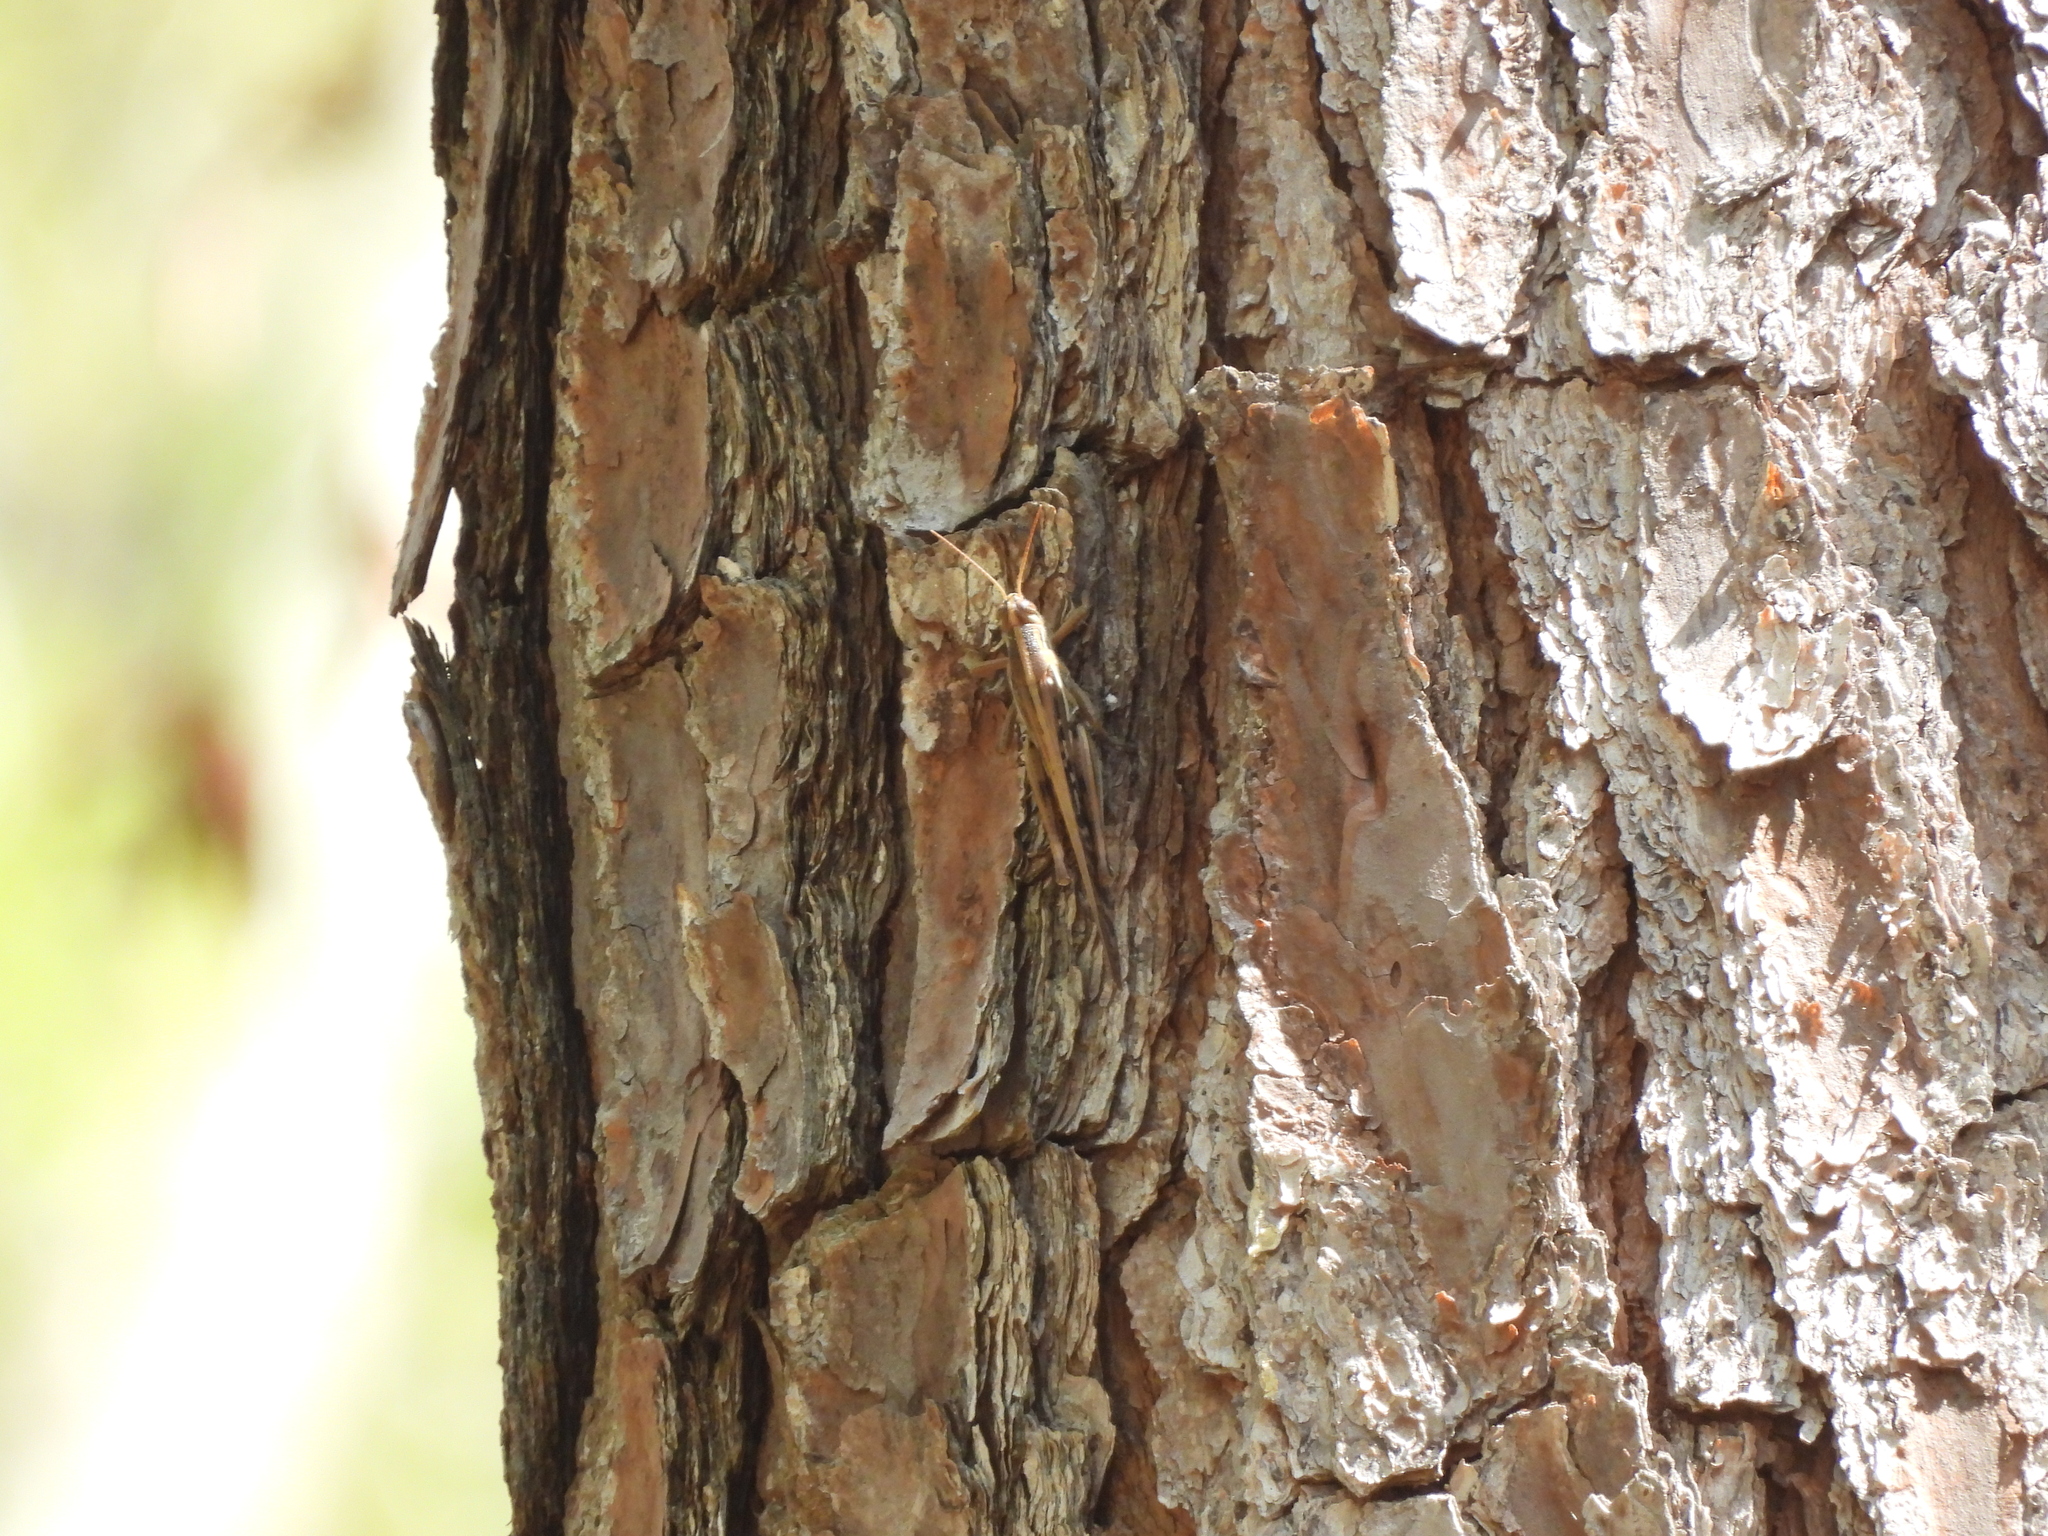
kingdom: Animalia
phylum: Arthropoda
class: Insecta
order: Orthoptera
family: Acrididae
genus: Schistocerca
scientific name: Schistocerca americana
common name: American bird locust
